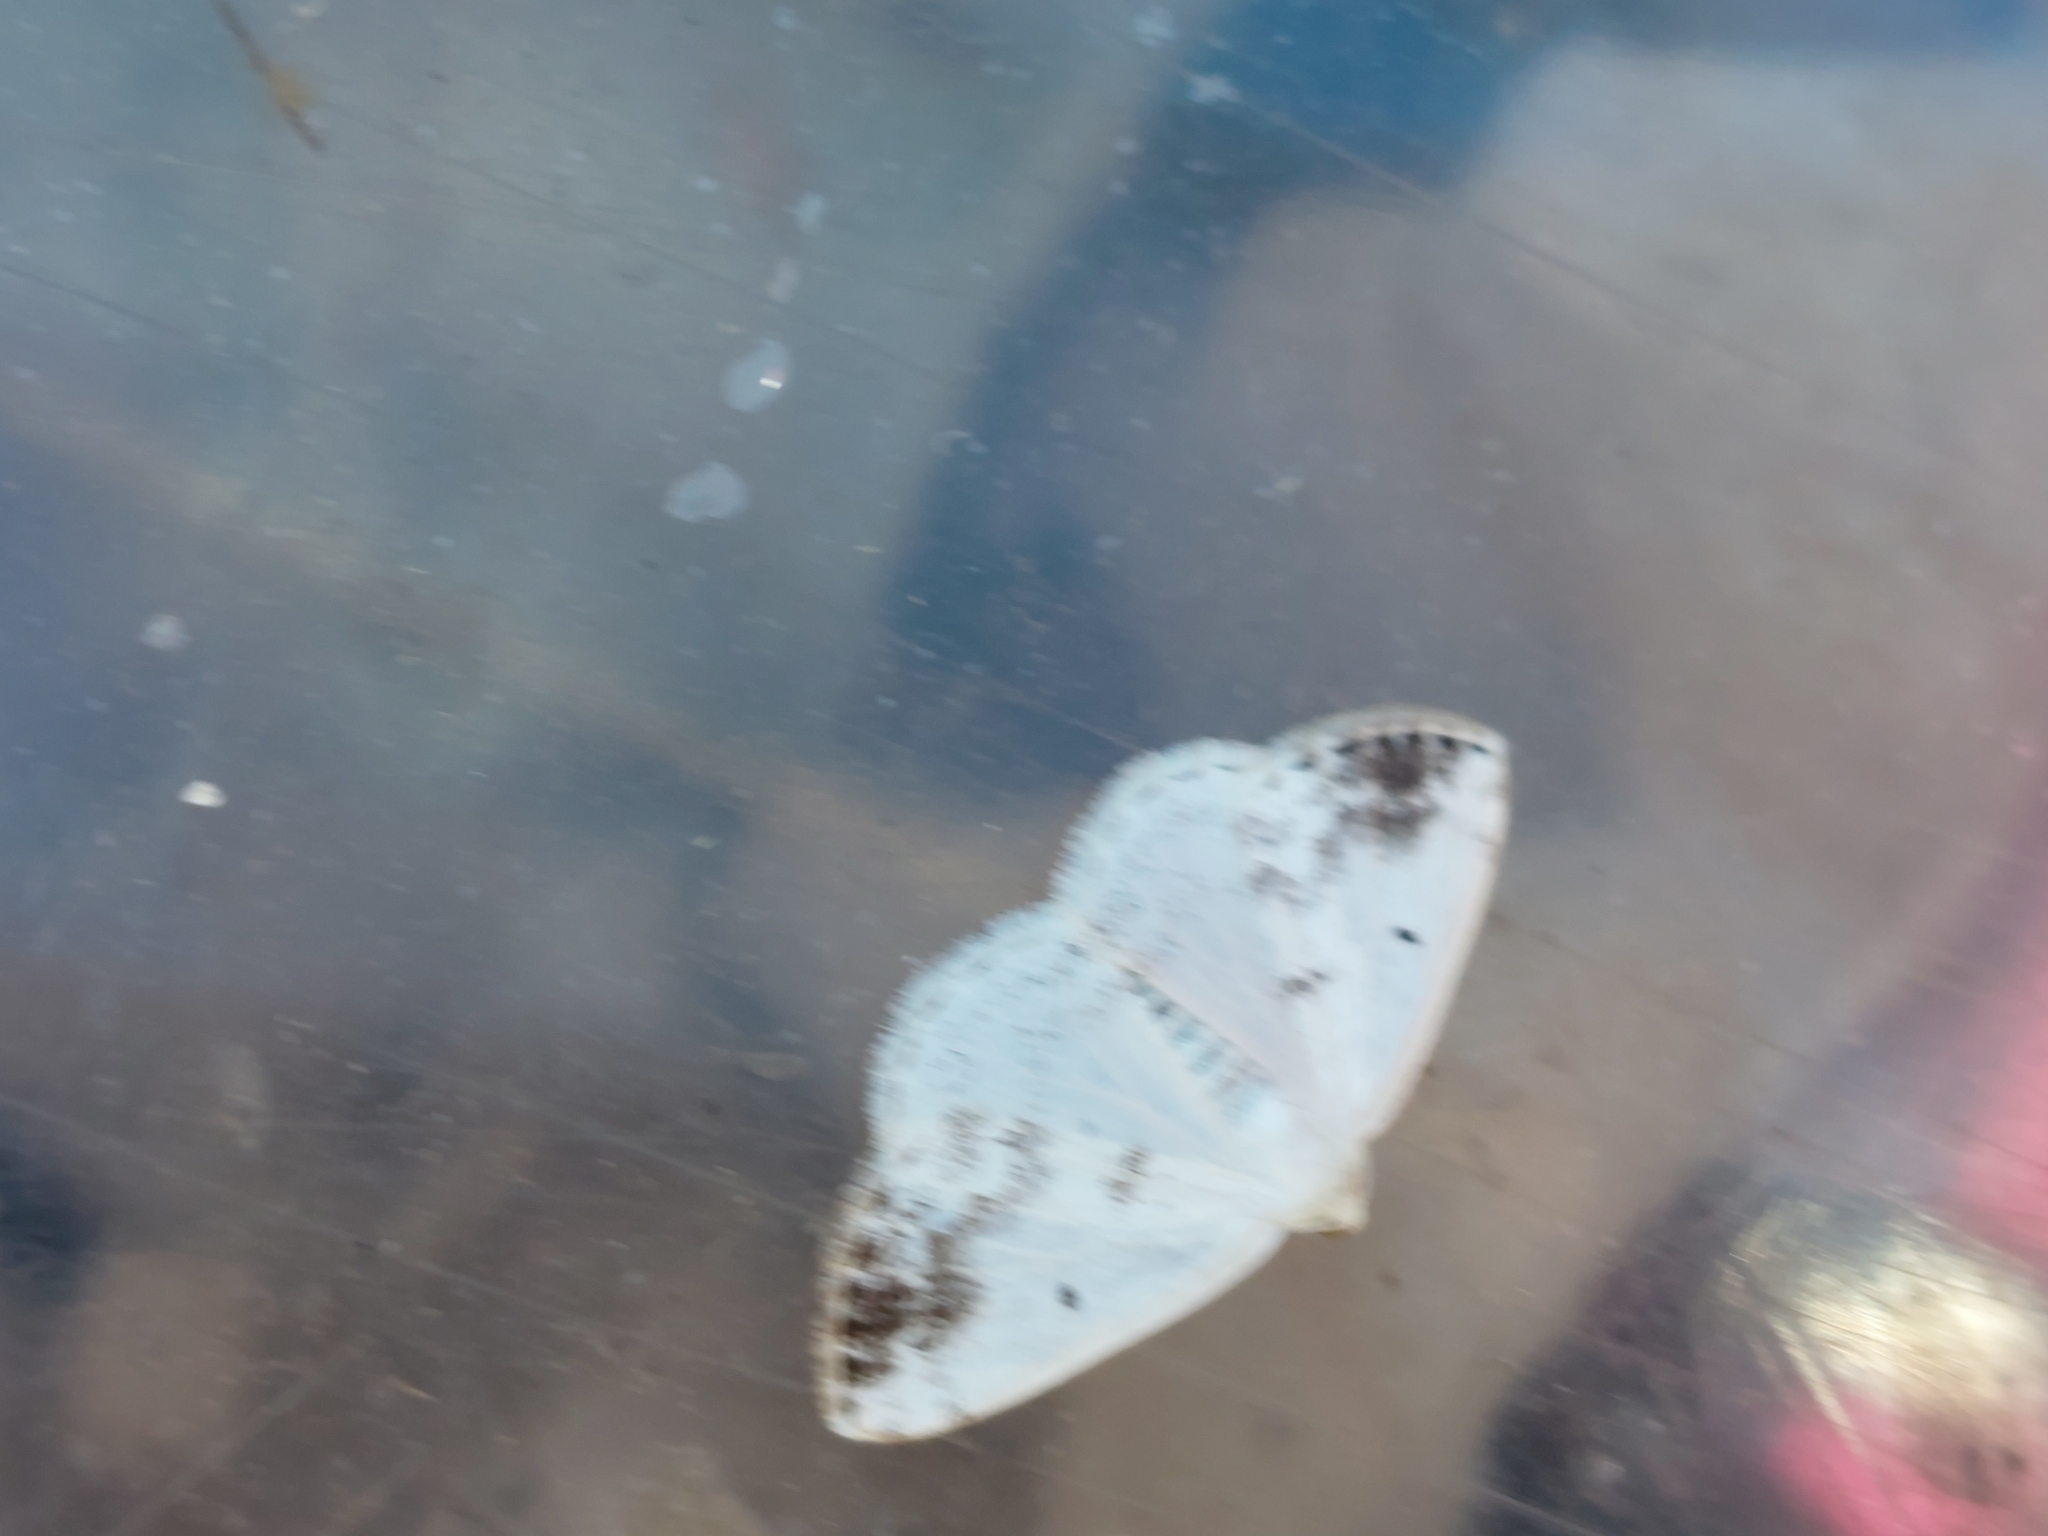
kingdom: Animalia
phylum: Arthropoda
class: Insecta
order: Lepidoptera
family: Geometridae
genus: Lomographa
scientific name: Lomographa temerata
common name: Clouded silver
